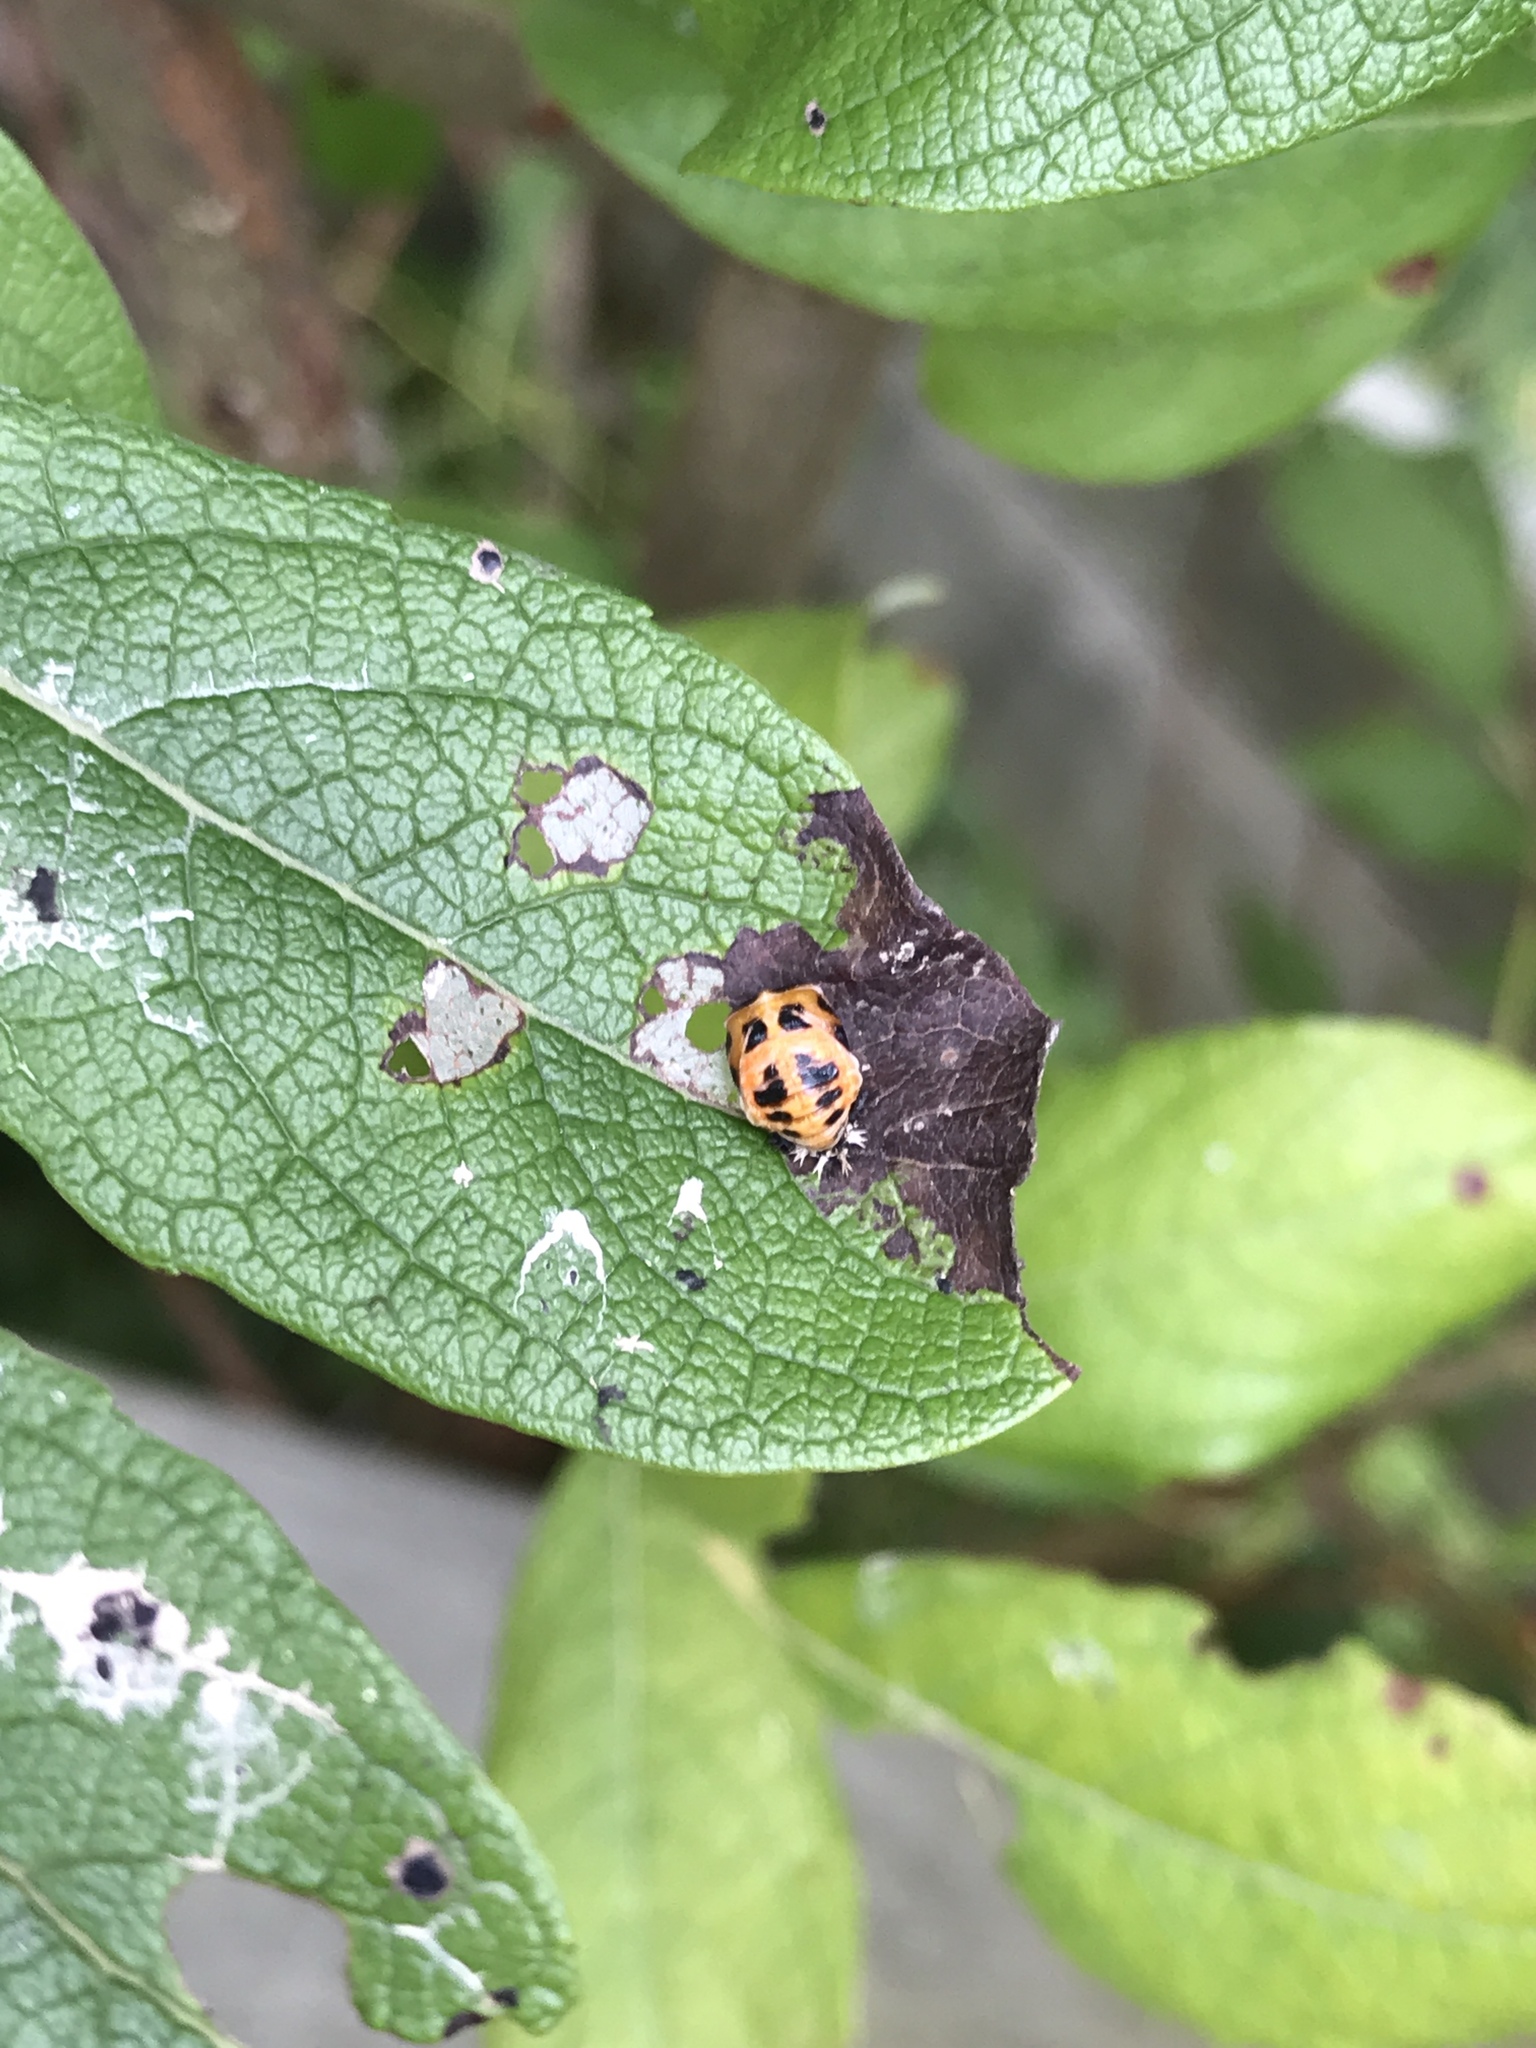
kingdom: Animalia
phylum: Arthropoda
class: Insecta
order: Coleoptera
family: Coccinellidae
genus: Harmonia
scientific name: Harmonia axyridis
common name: Harlequin ladybird
